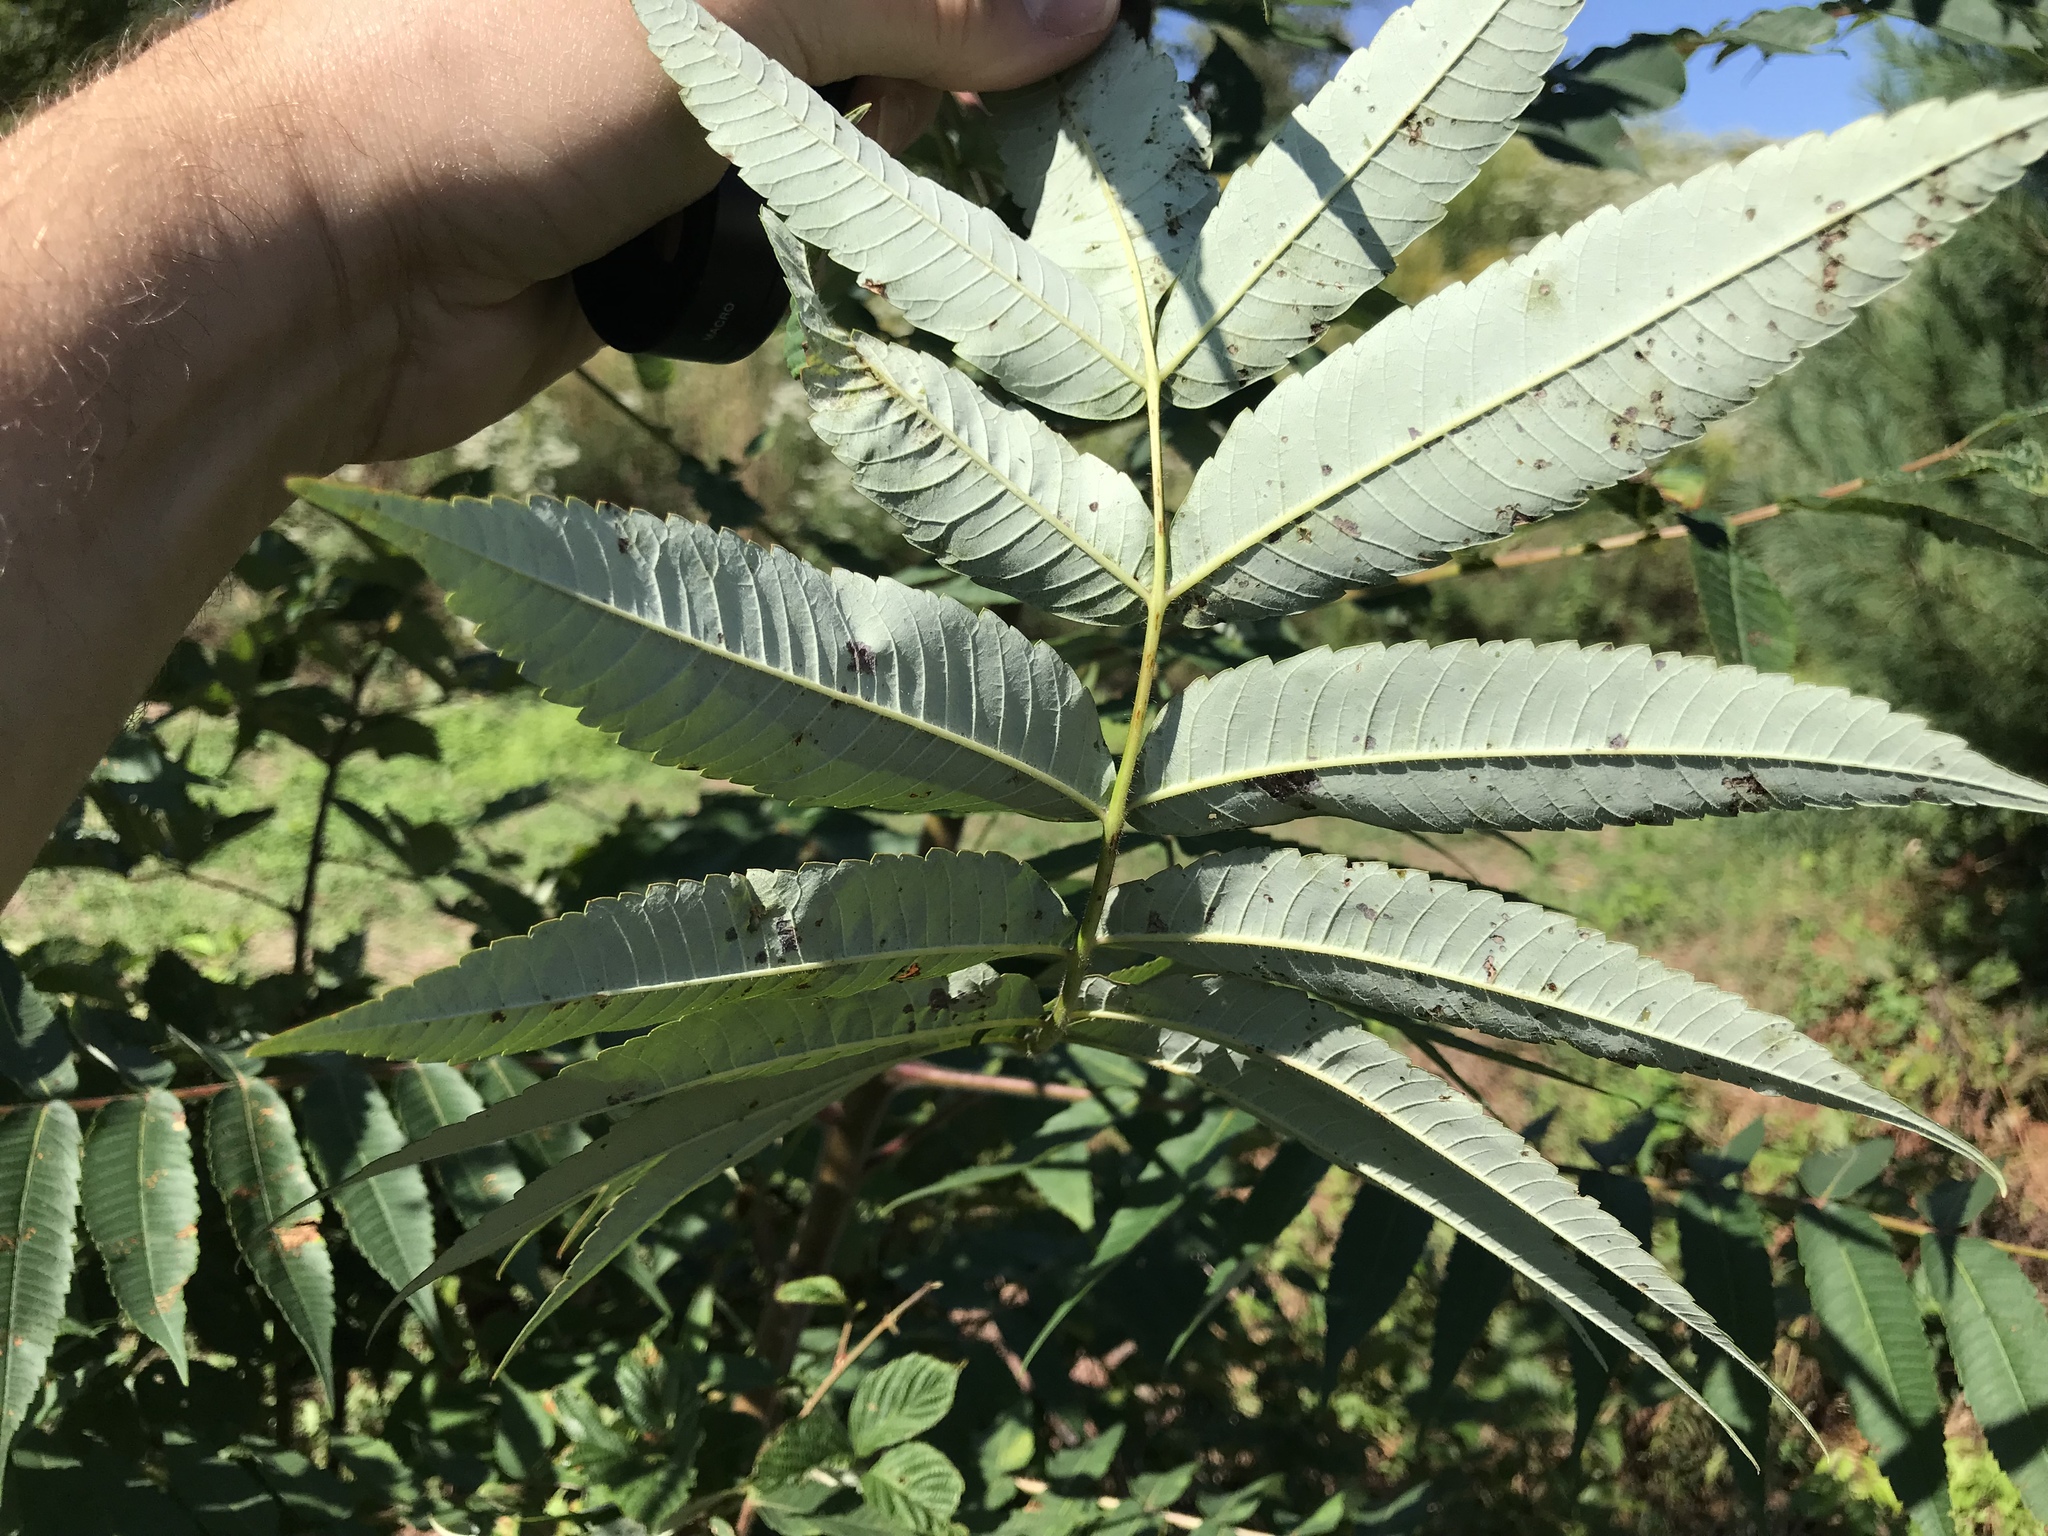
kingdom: Plantae
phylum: Tracheophyta
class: Magnoliopsida
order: Sapindales
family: Anacardiaceae
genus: Rhus
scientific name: Rhus typhina
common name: Staghorn sumac
